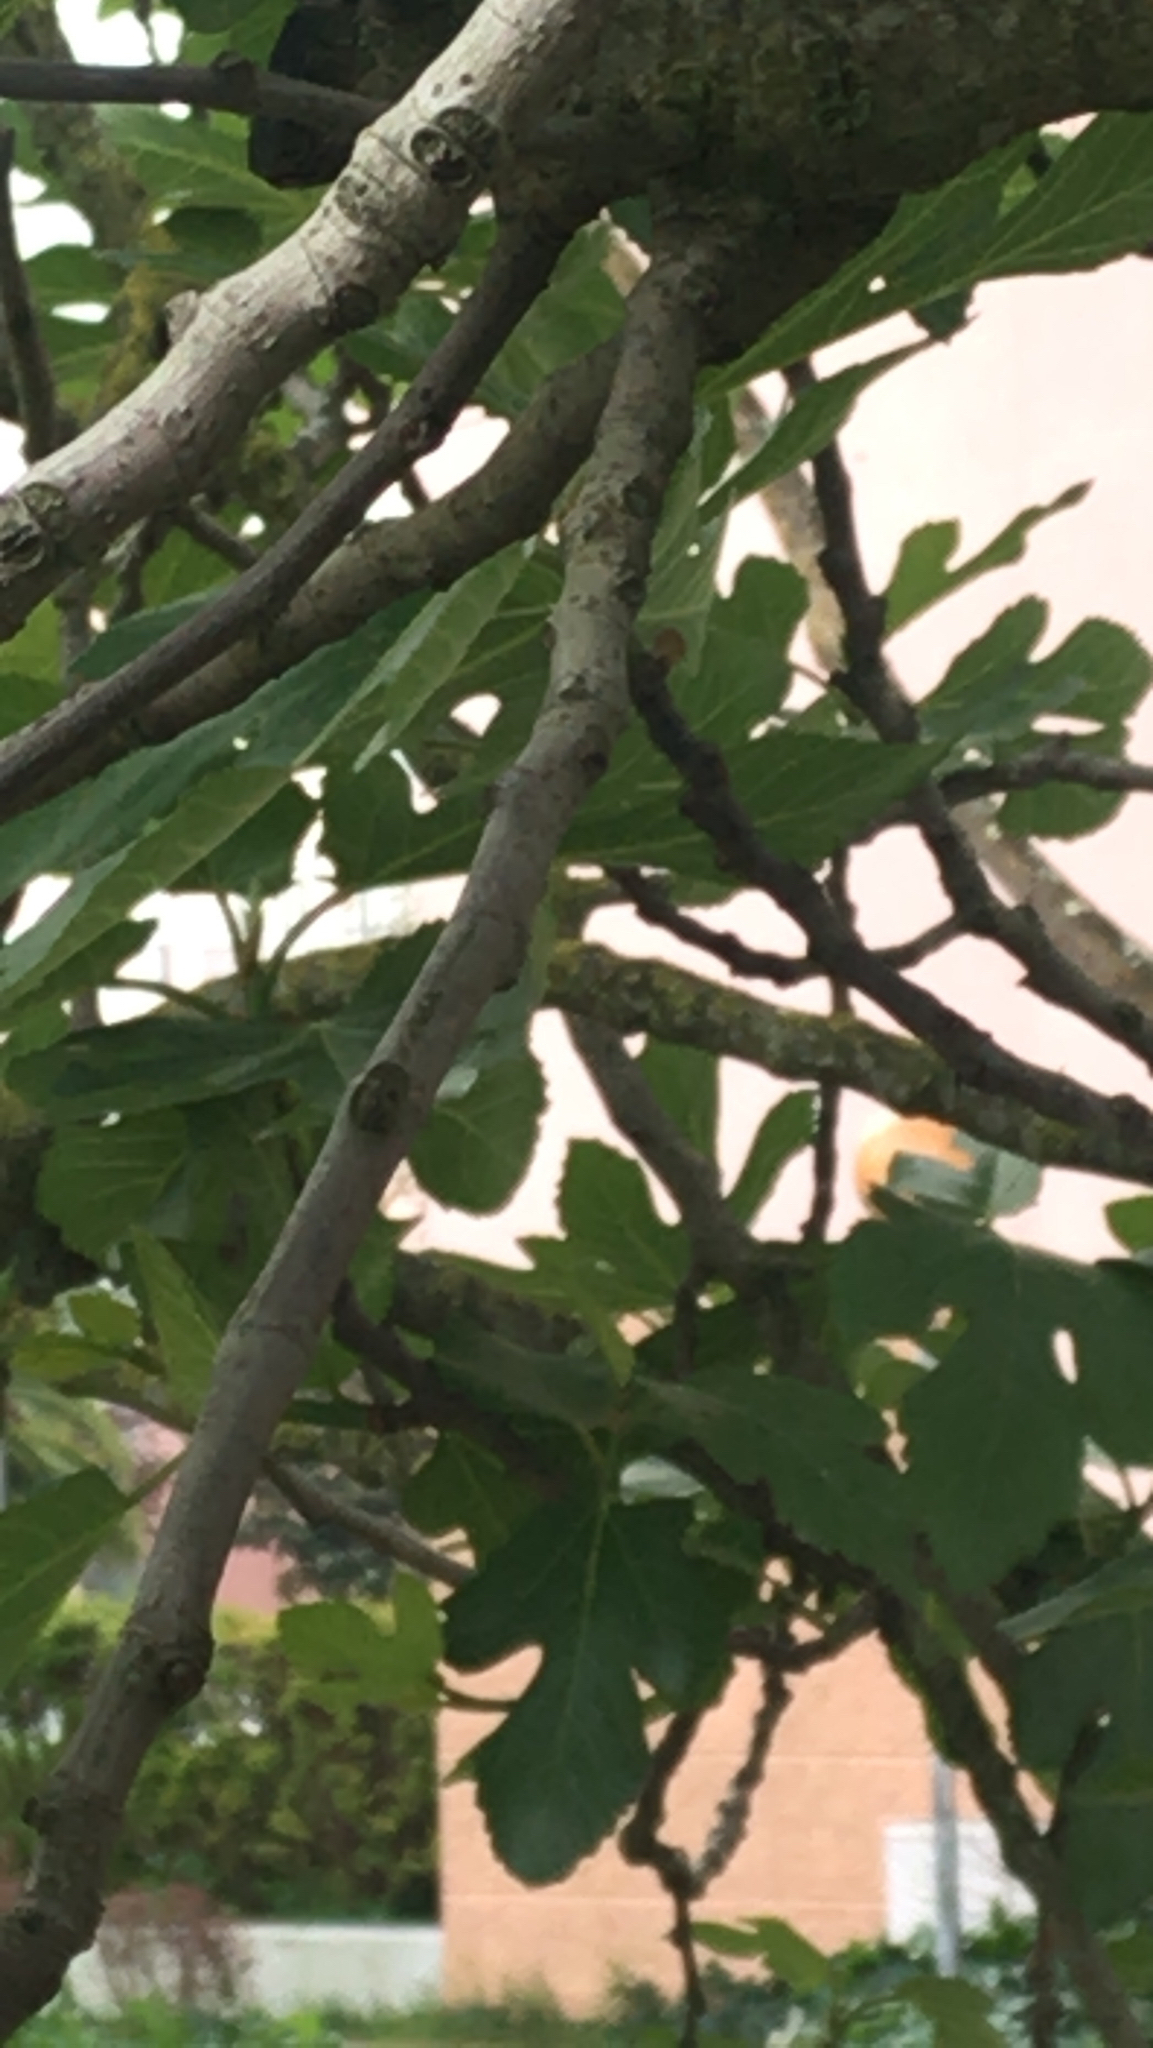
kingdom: Plantae
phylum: Tracheophyta
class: Magnoliopsida
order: Rosales
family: Moraceae
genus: Ficus
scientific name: Ficus carica
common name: Fig
